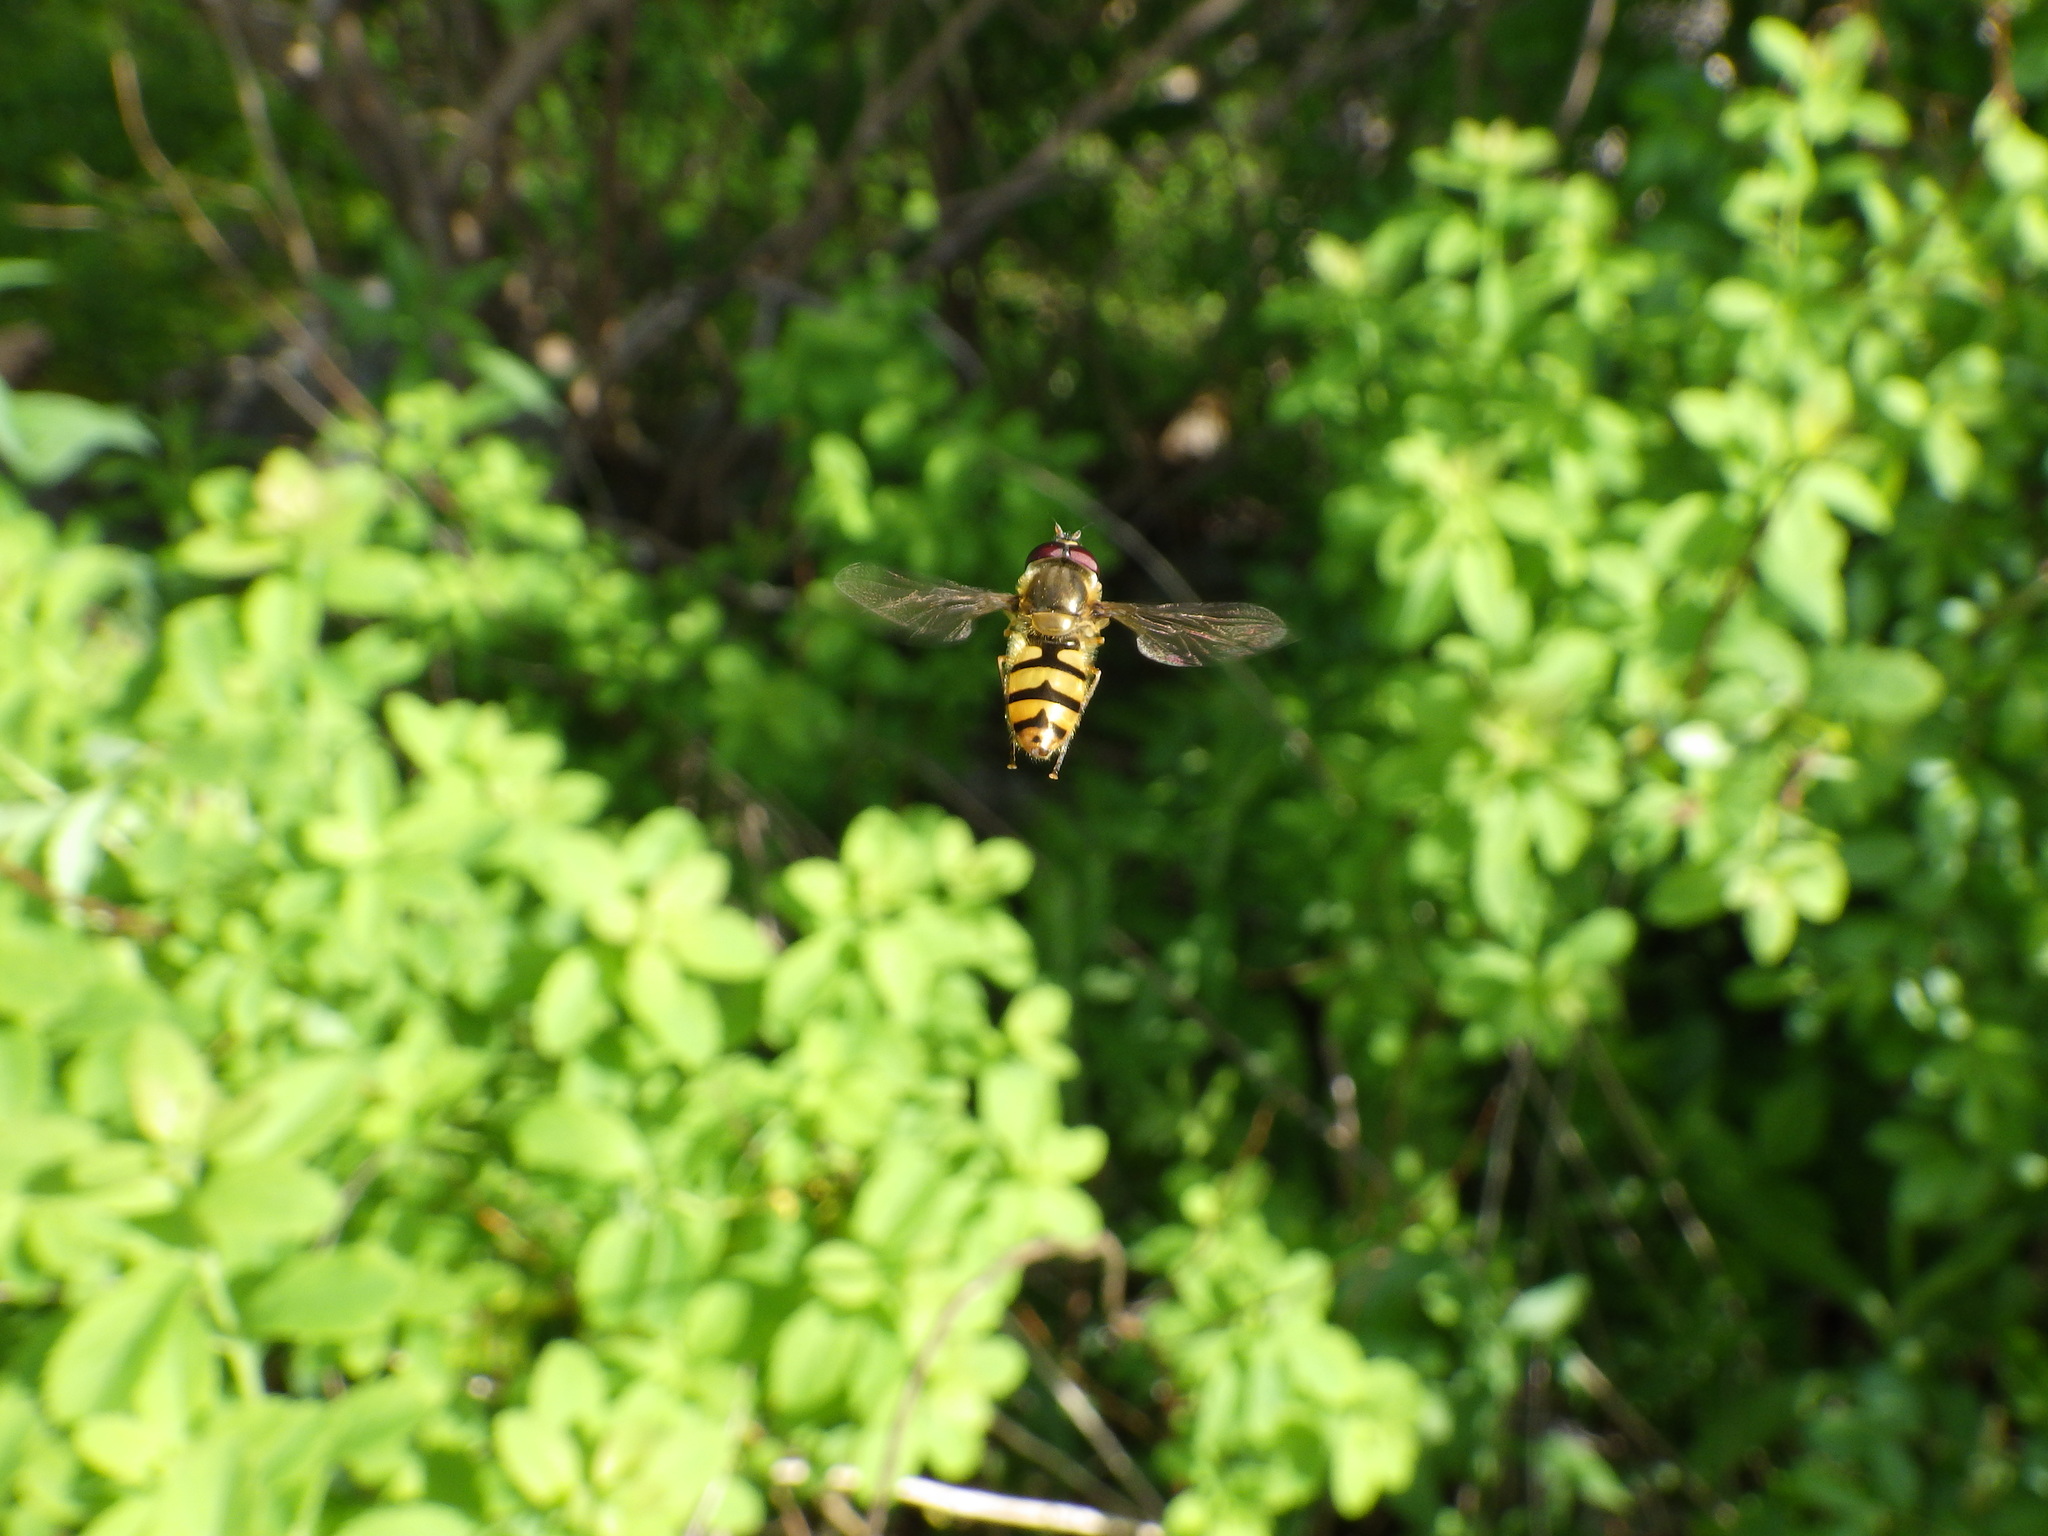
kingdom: Animalia
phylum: Arthropoda
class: Insecta
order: Diptera
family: Syrphidae
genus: Epistrophe
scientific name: Epistrophe xanthostoma
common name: Emarginate smoothtail
